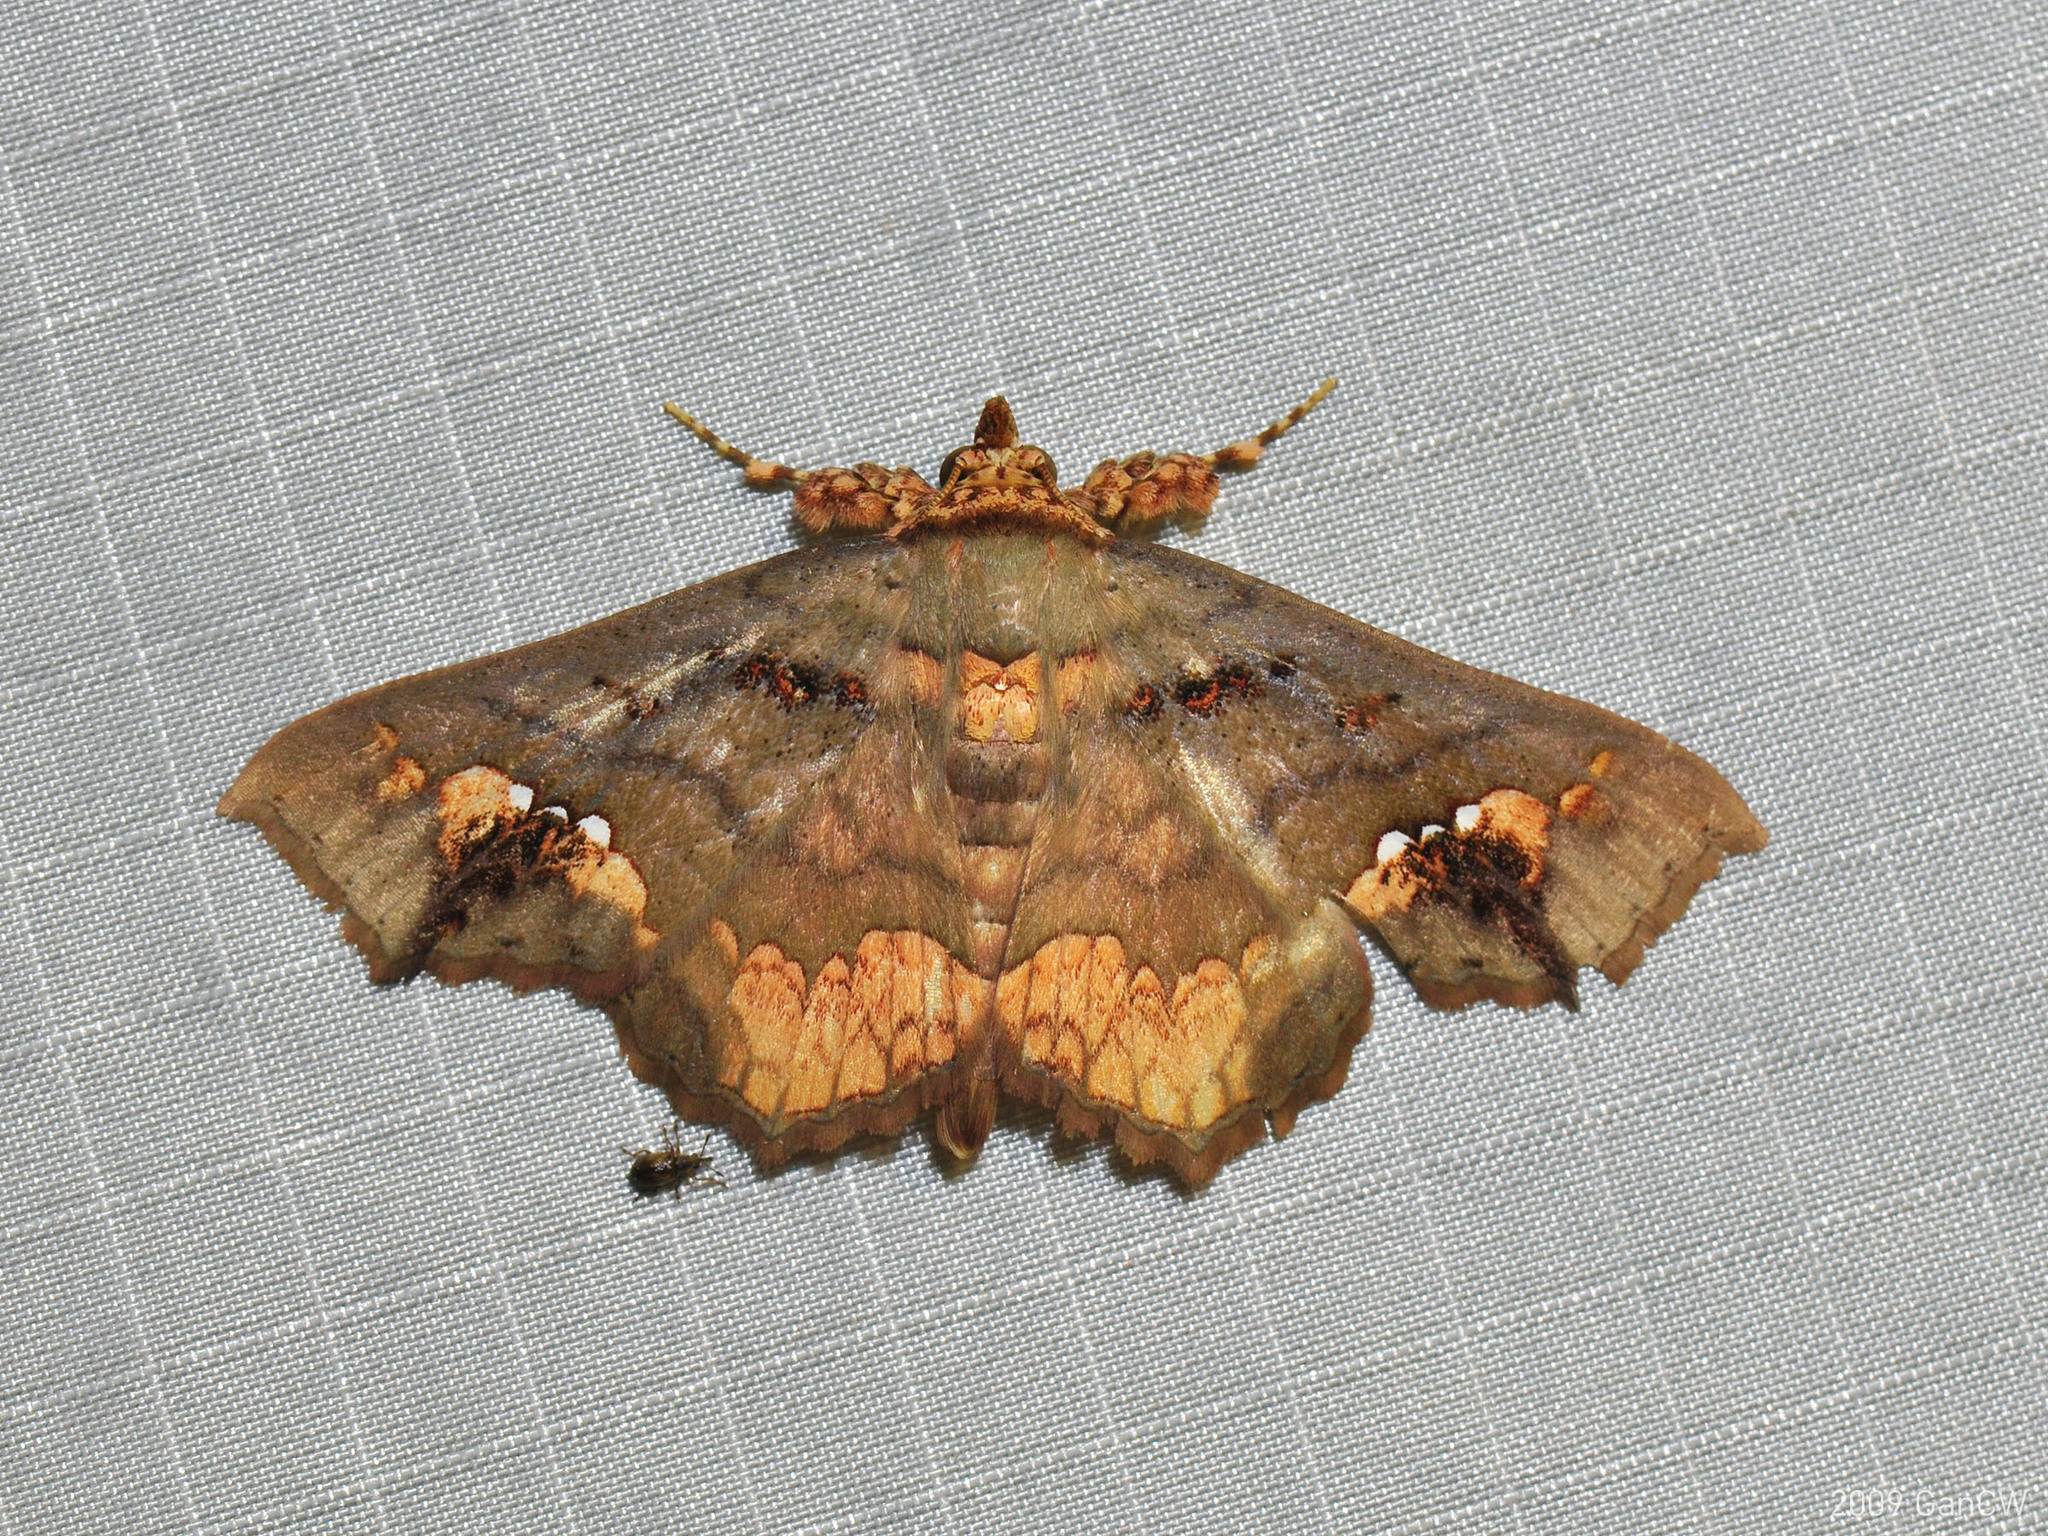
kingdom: Animalia
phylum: Arthropoda
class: Insecta
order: Lepidoptera
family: Erebidae
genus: Lopharthrum
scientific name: Lopharthrum comprimens
